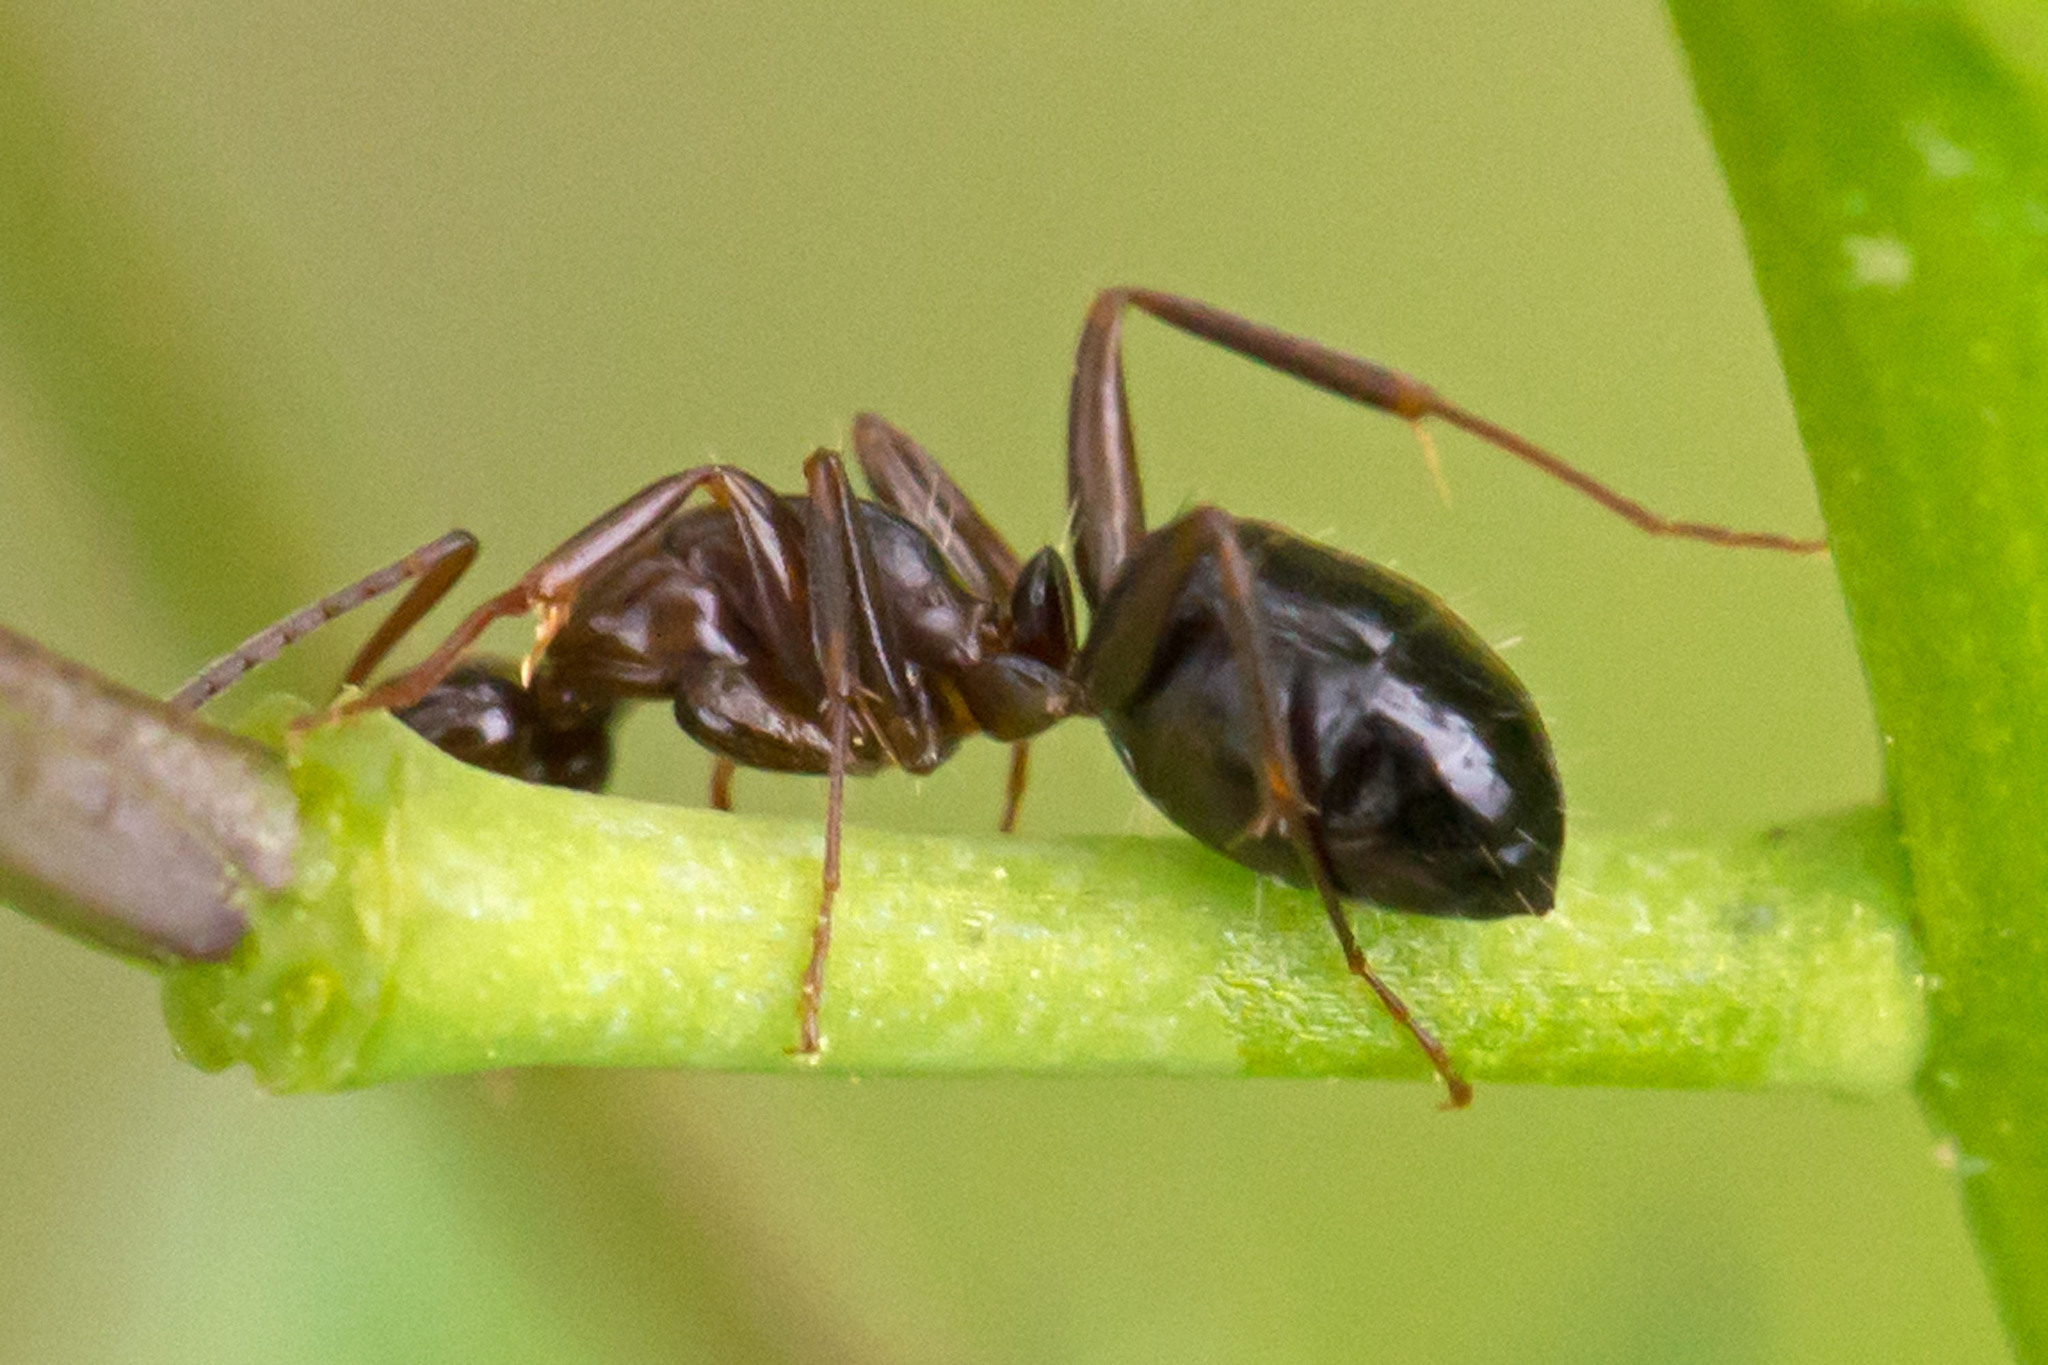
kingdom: Animalia
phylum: Arthropoda
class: Insecta
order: Hymenoptera
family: Formicidae
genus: Camponotus
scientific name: Camponotus nearcticus
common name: Smaller carpenter ant
